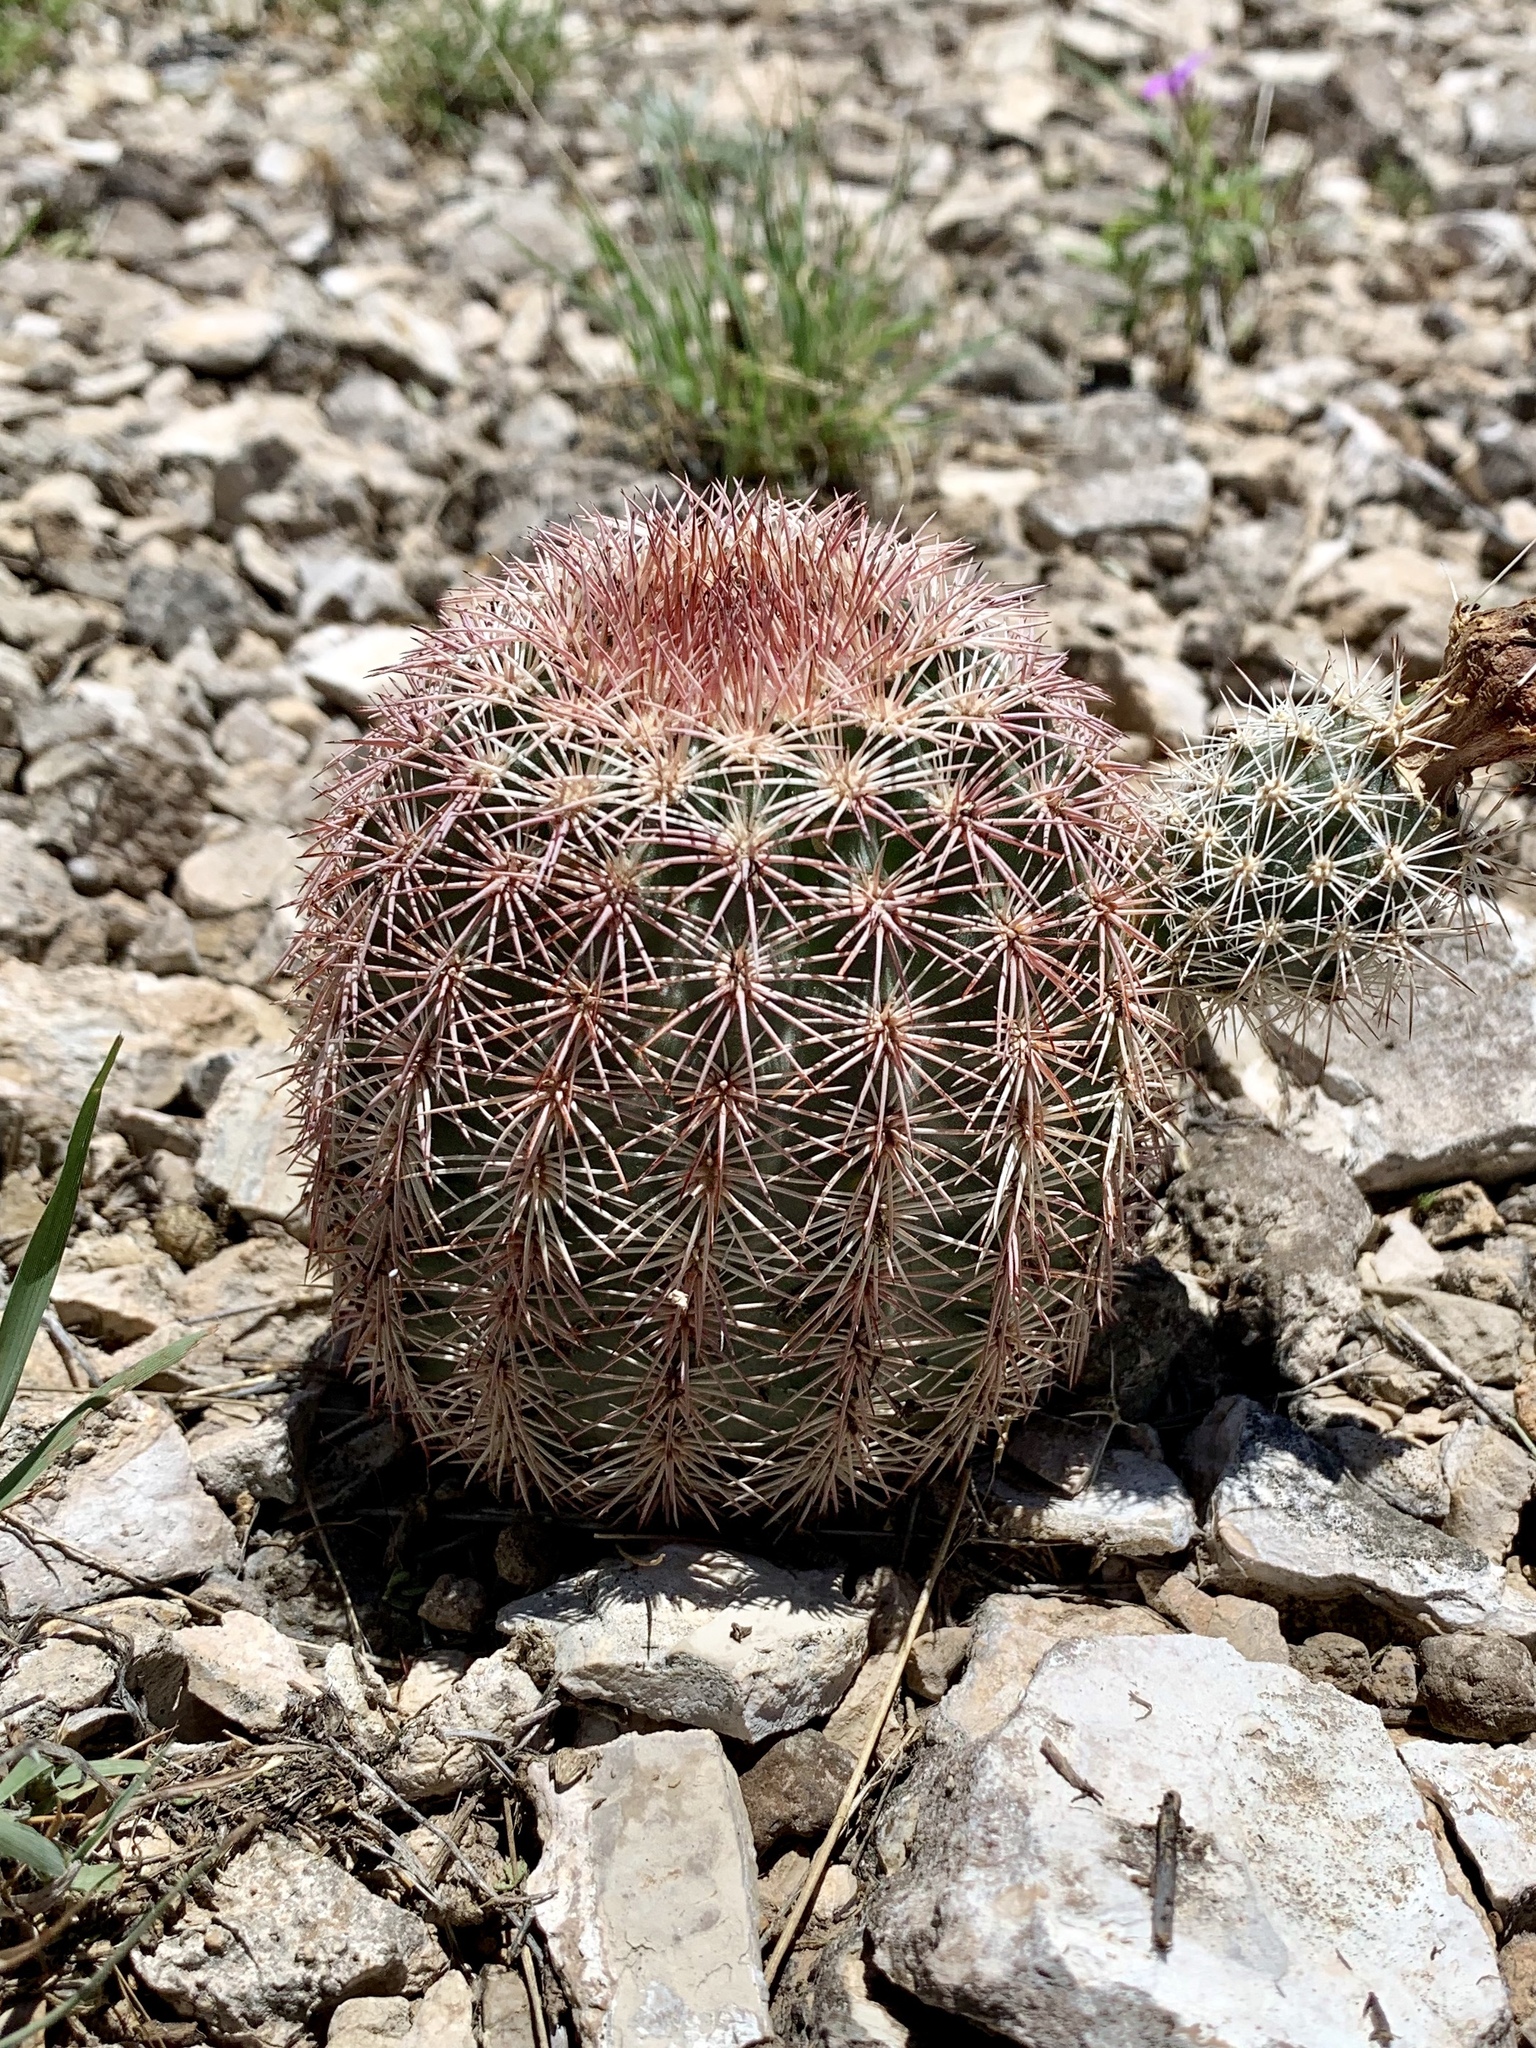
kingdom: Plantae
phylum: Tracheophyta
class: Magnoliopsida
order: Caryophyllales
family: Cactaceae
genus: Echinocereus
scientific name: Echinocereus dasyacanthus
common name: Spiny hedgehog cactus
